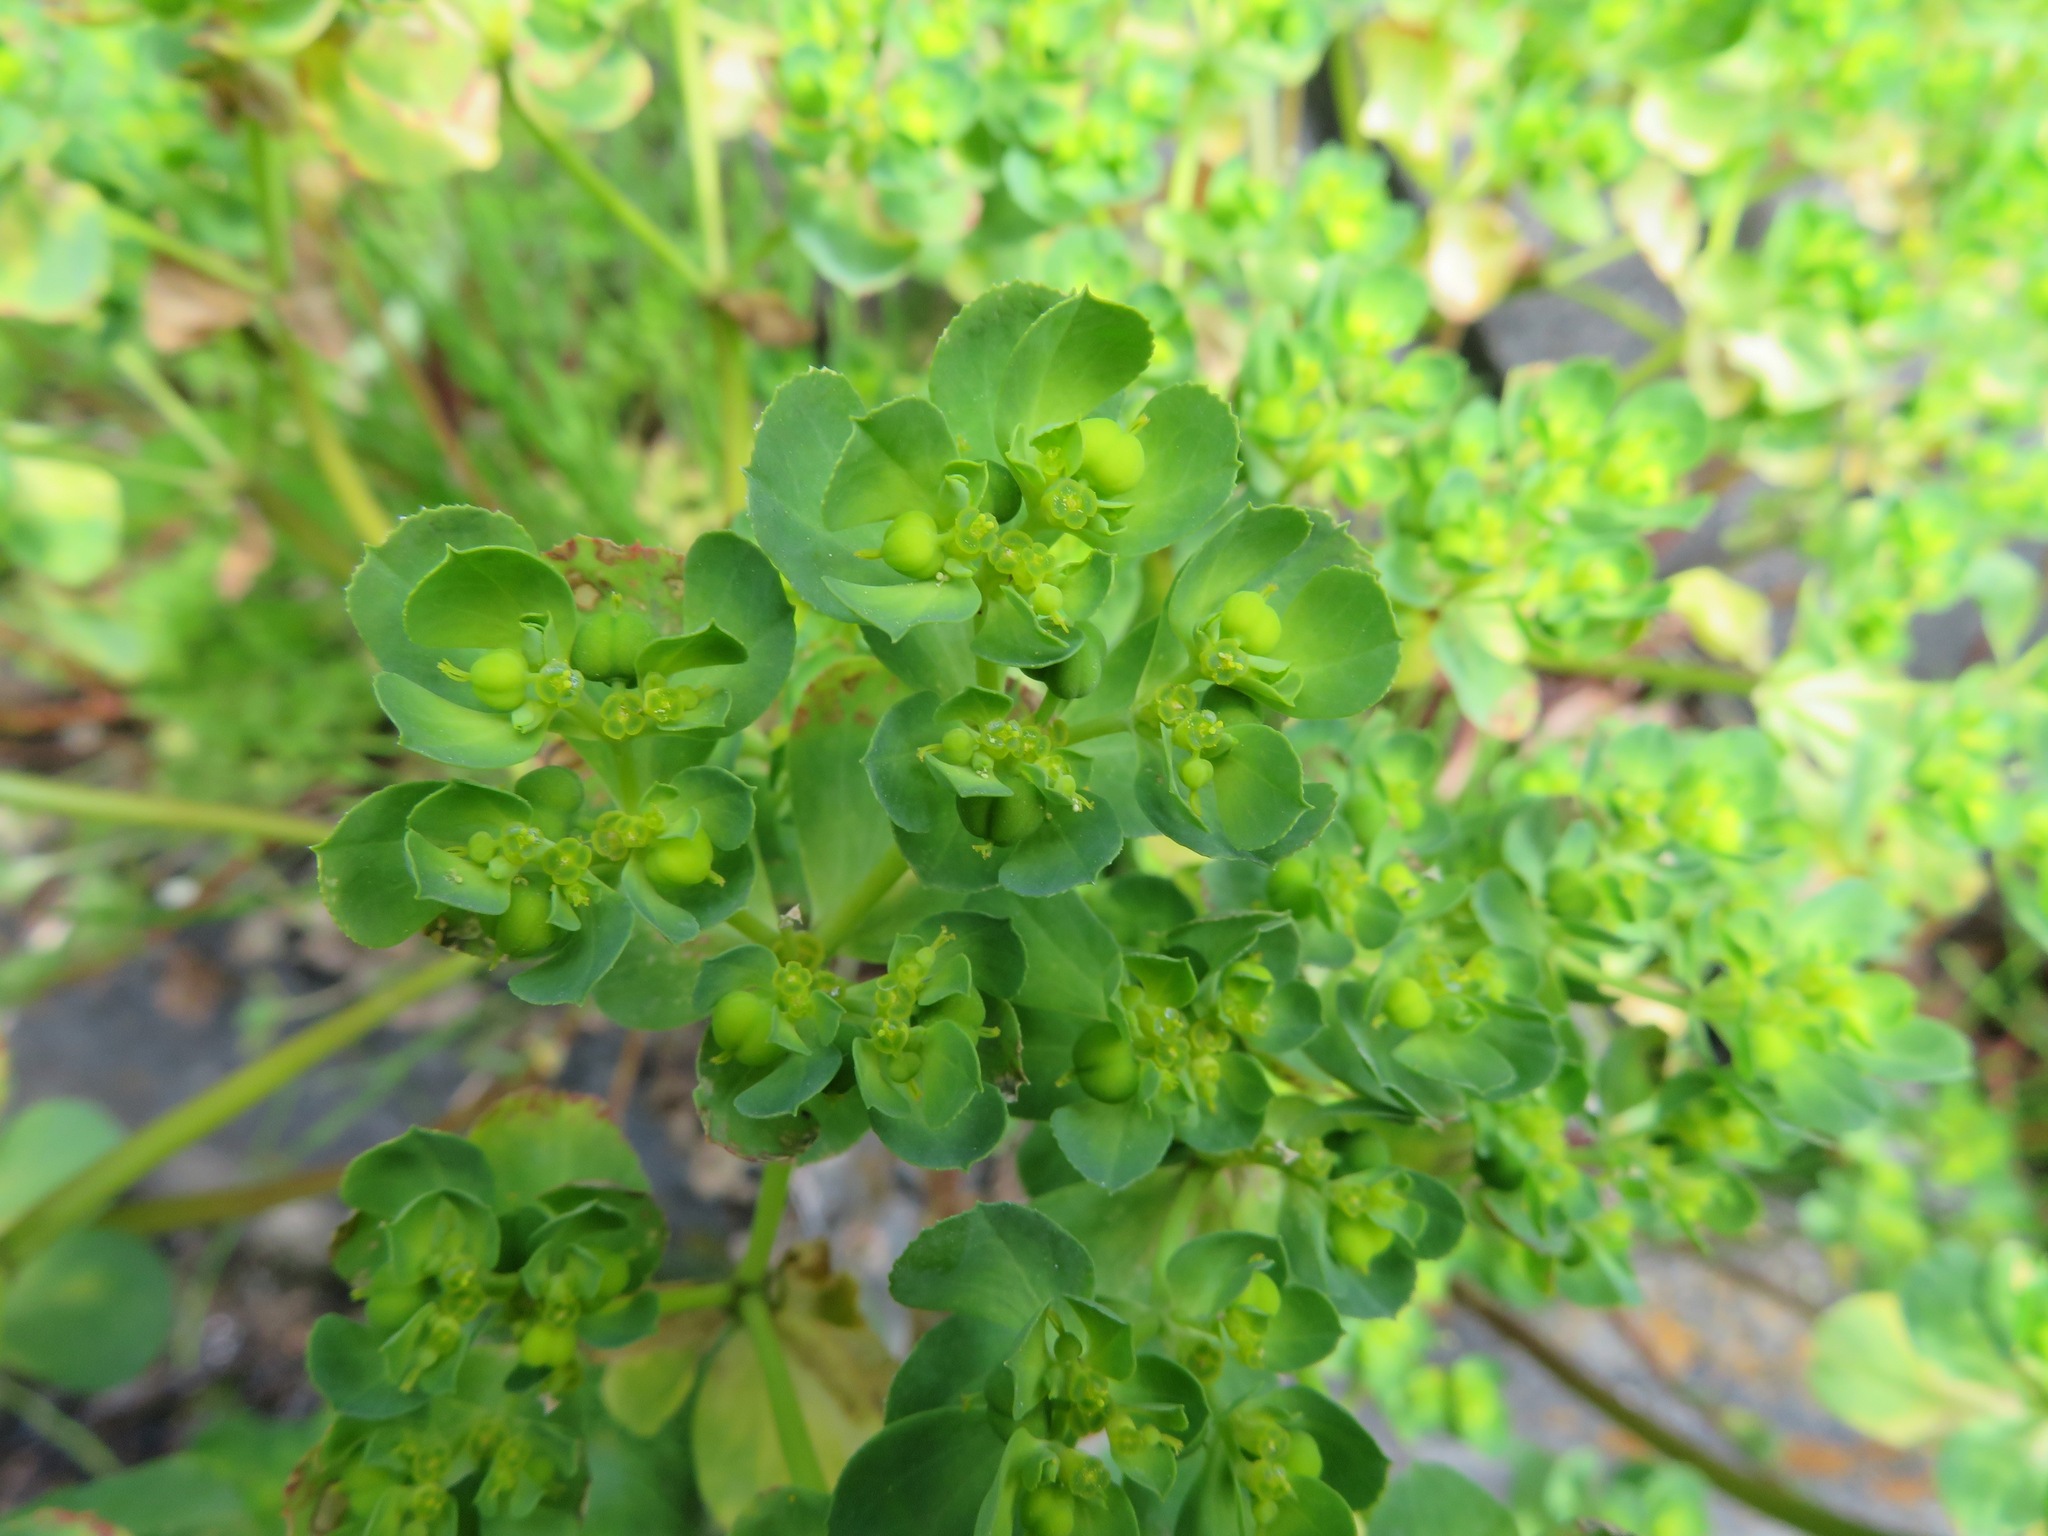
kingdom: Plantae
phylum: Tracheophyta
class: Magnoliopsida
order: Malpighiales
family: Euphorbiaceae
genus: Euphorbia
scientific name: Euphorbia helioscopia
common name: Sun spurge
